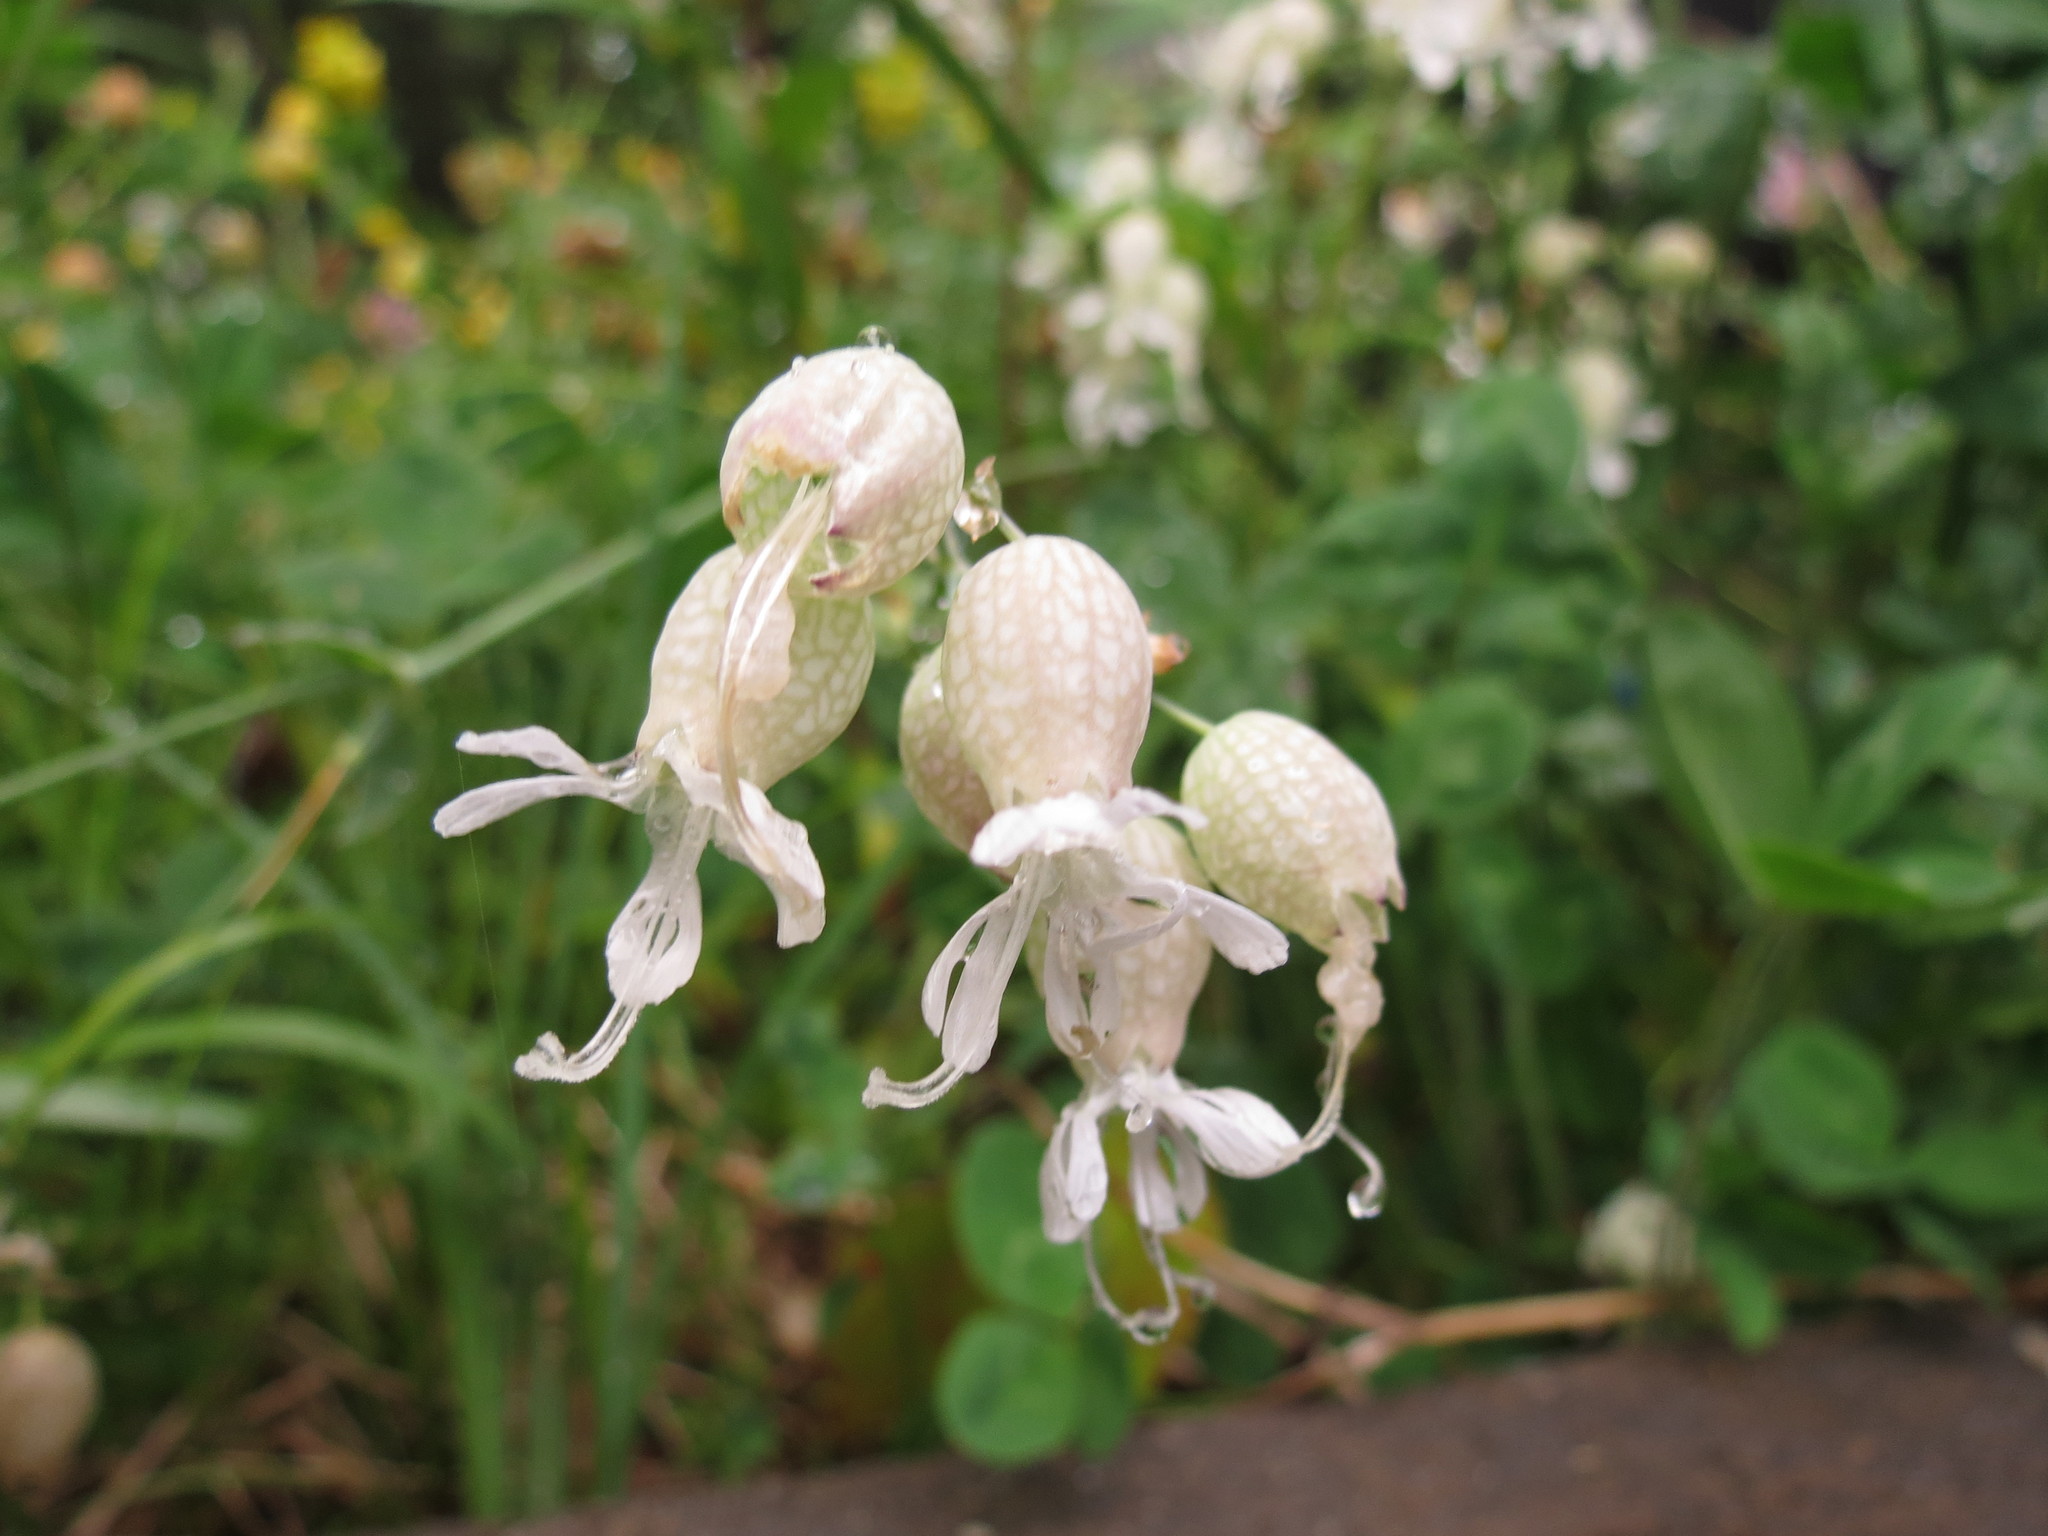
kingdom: Plantae
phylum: Tracheophyta
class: Magnoliopsida
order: Caryophyllales
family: Caryophyllaceae
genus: Silene
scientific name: Silene vulgaris
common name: Bladder campion
